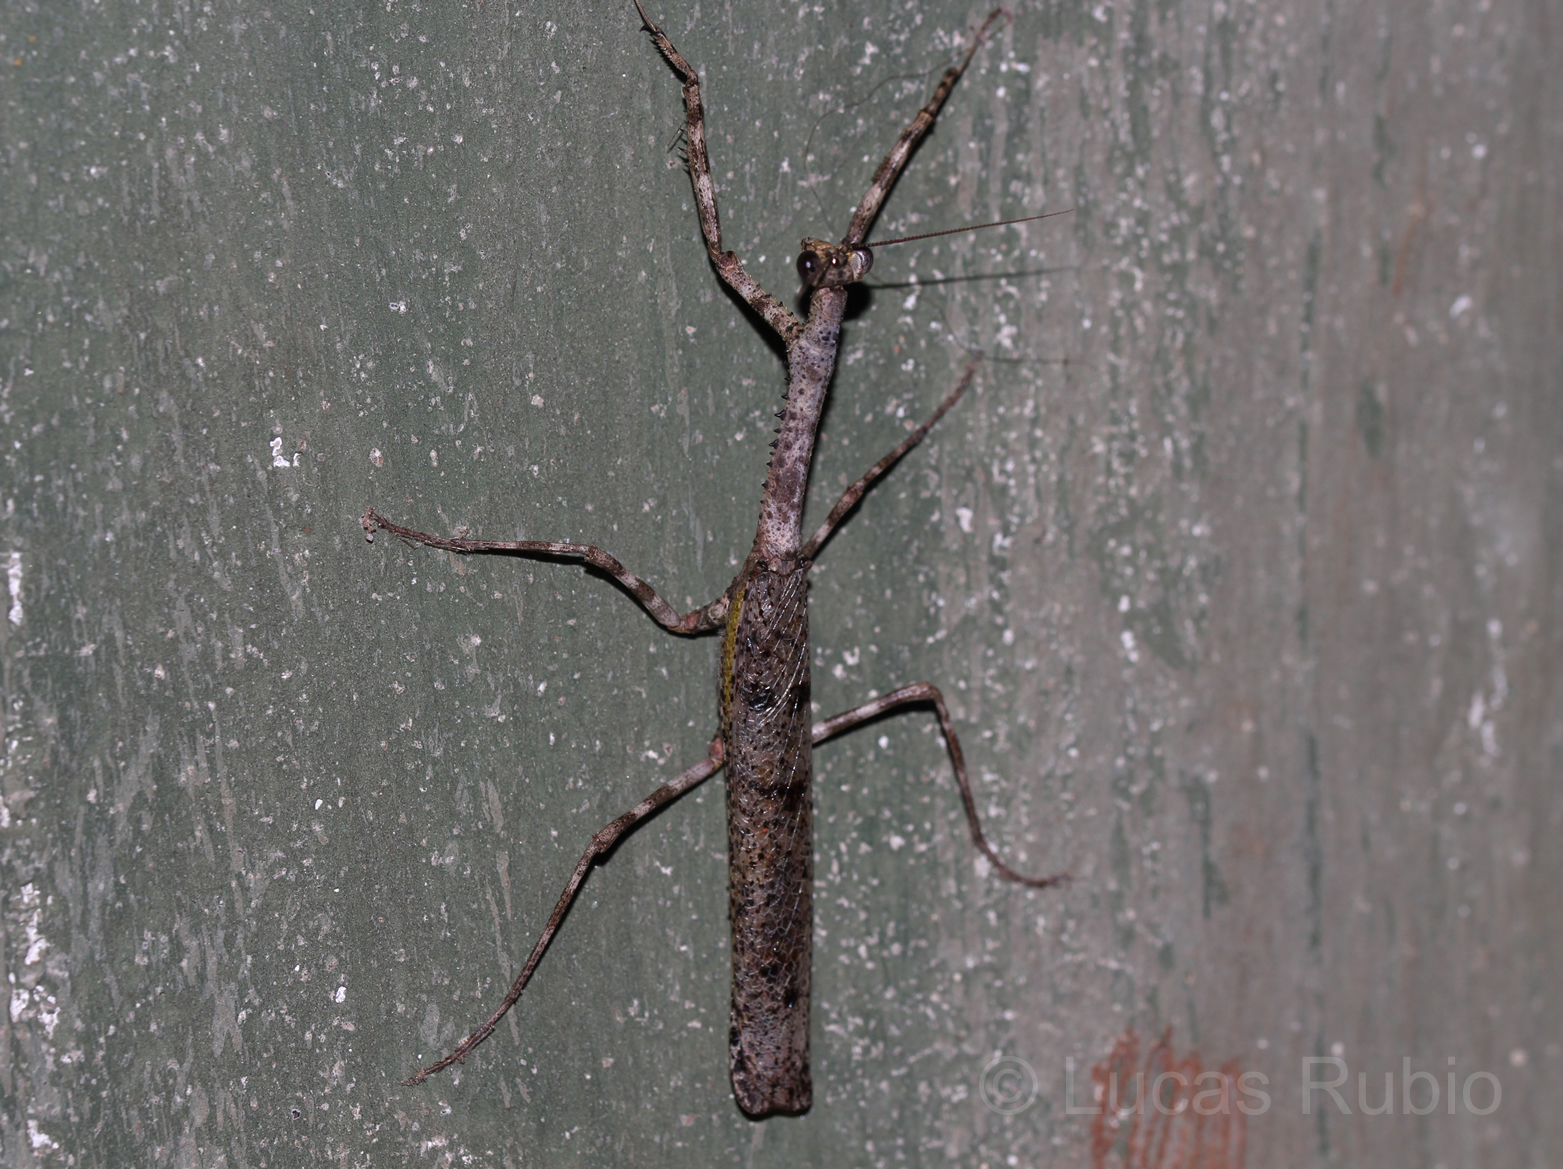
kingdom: Animalia
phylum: Arthropoda
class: Insecta
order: Mantodea
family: Mantidae
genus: Pseudovates
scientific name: Pseudovates hofmanni
